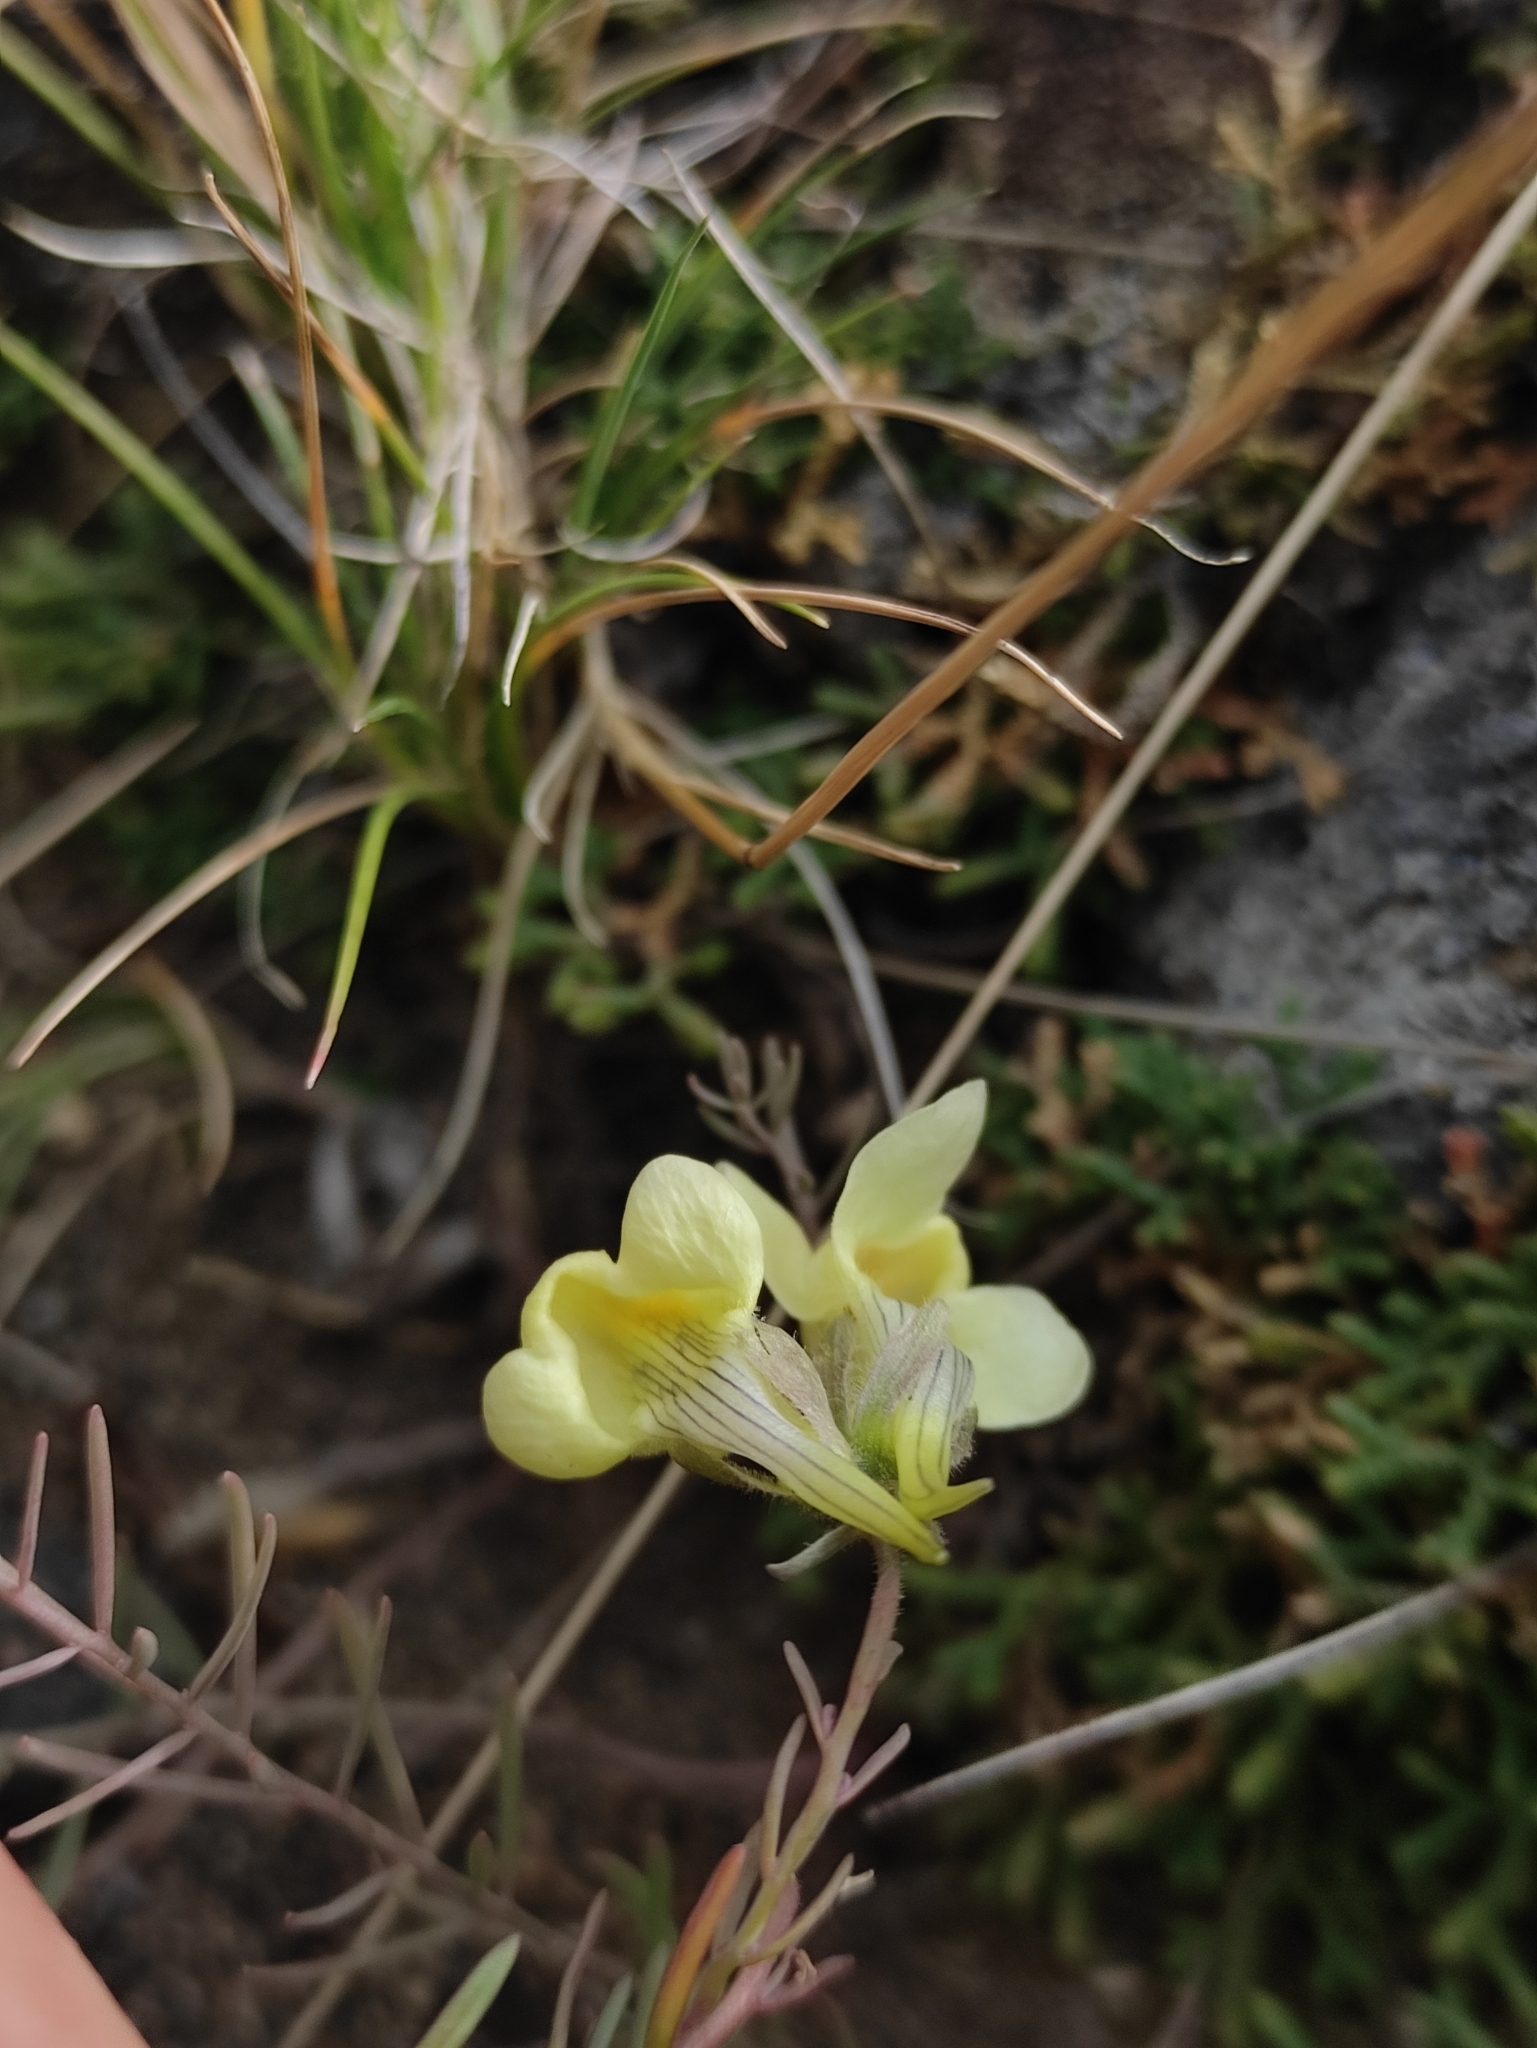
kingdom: Plantae
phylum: Tracheophyta
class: Magnoliopsida
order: Lamiales
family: Plantaginaceae
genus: Linaria
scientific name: Linaria buriatica
